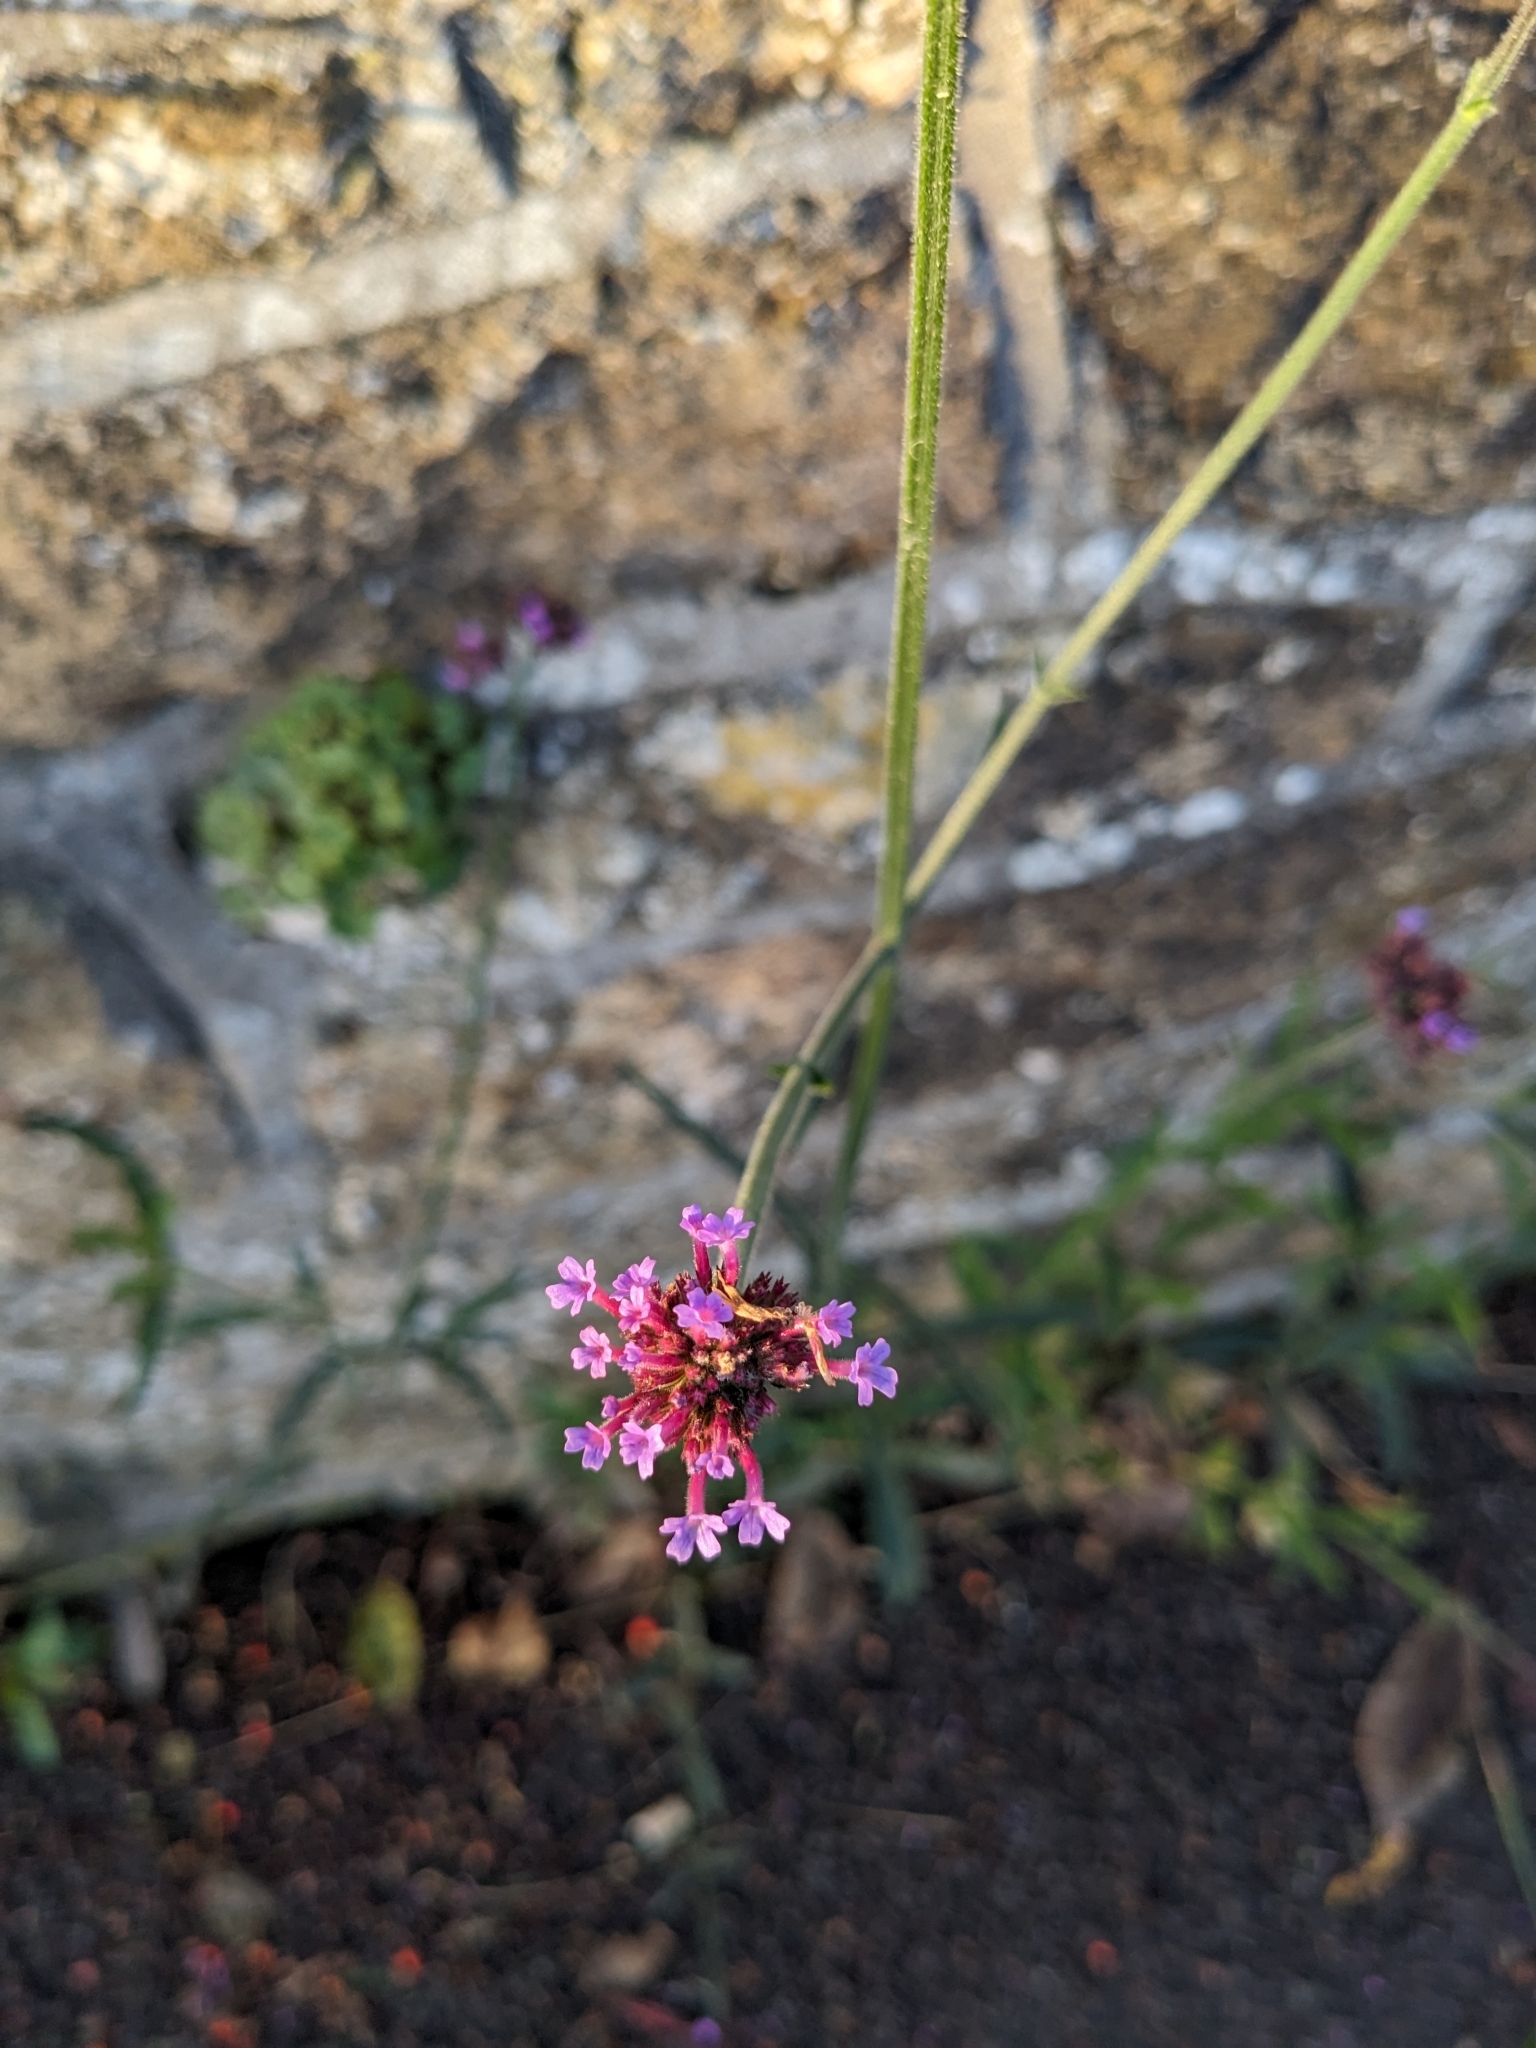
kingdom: Plantae
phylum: Tracheophyta
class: Magnoliopsida
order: Lamiales
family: Verbenaceae
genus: Verbena
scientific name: Verbena bonariensis
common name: Purpletop vervain
